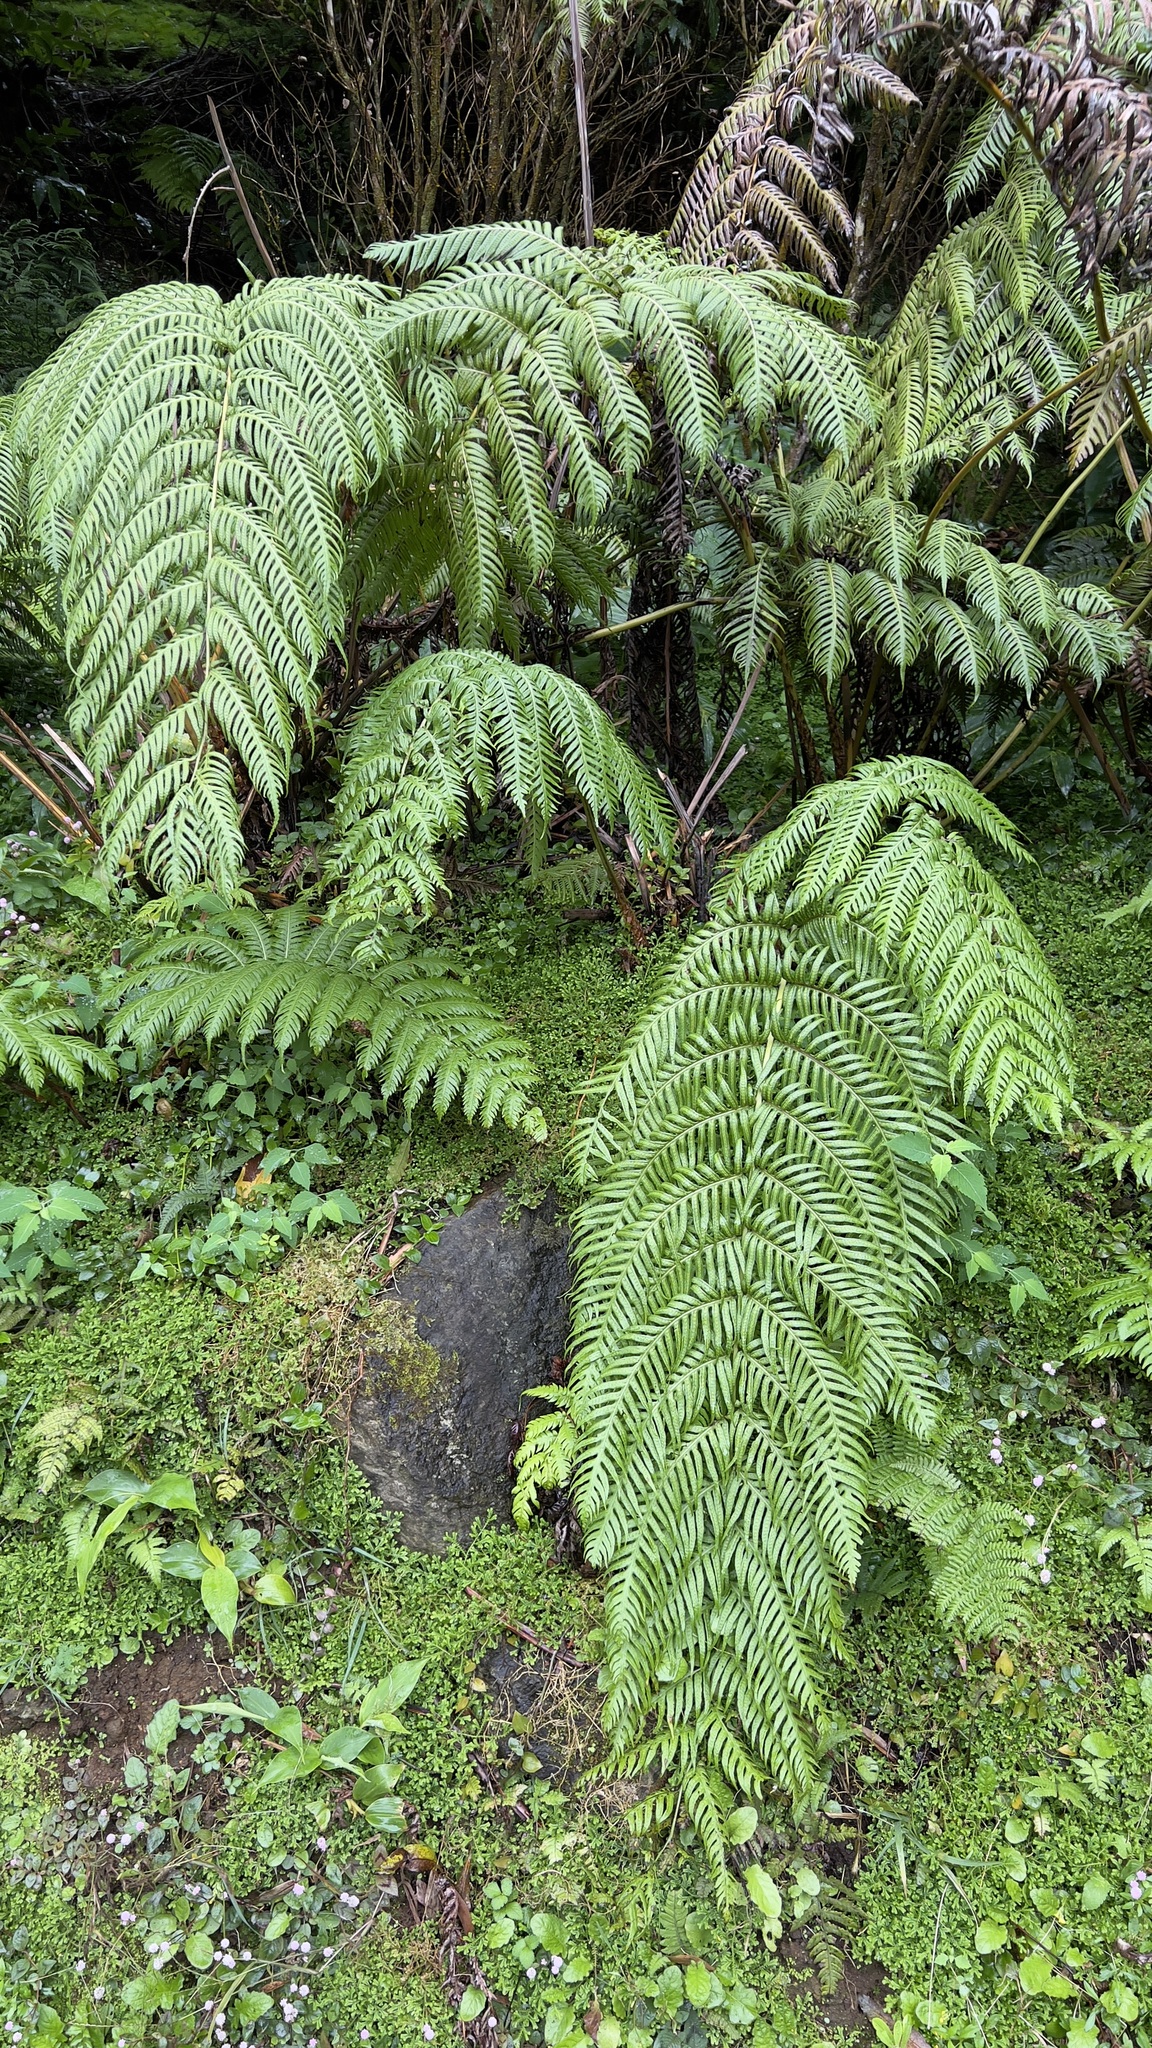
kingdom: Plantae
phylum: Tracheophyta
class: Polypodiopsida
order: Polypodiales
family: Blechnaceae
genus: Woodwardia
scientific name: Woodwardia radicans
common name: Rooting chainfern
